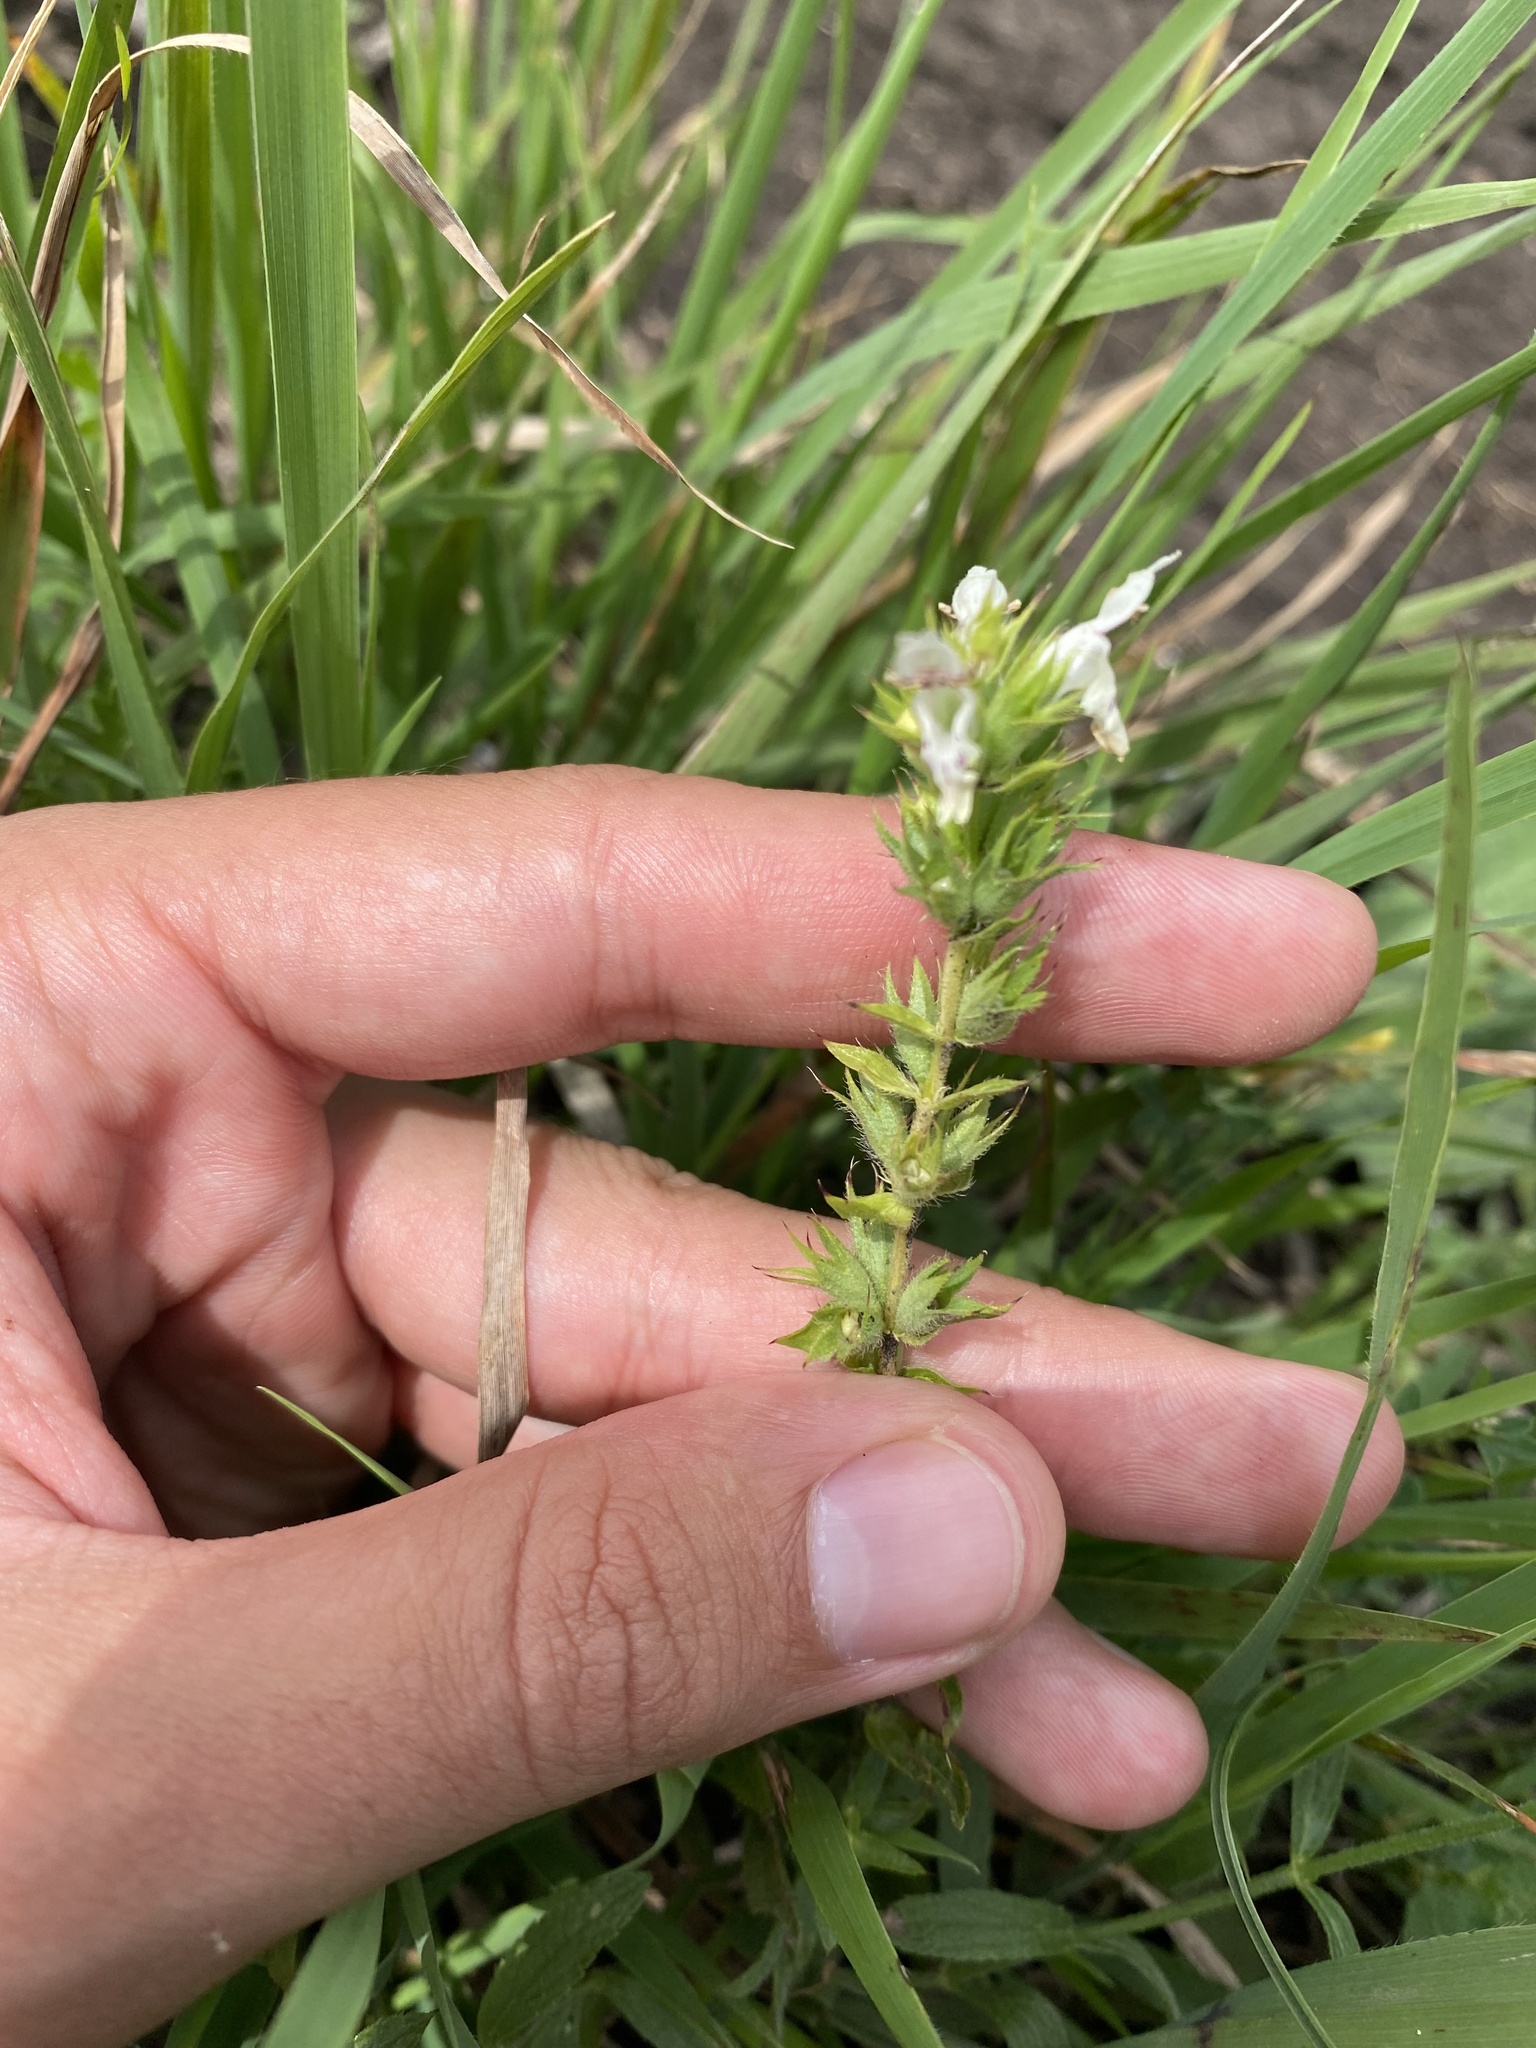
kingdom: Plantae
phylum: Tracheophyta
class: Magnoliopsida
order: Lamiales
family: Lamiaceae
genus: Stachys
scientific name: Stachys atherocalyx
